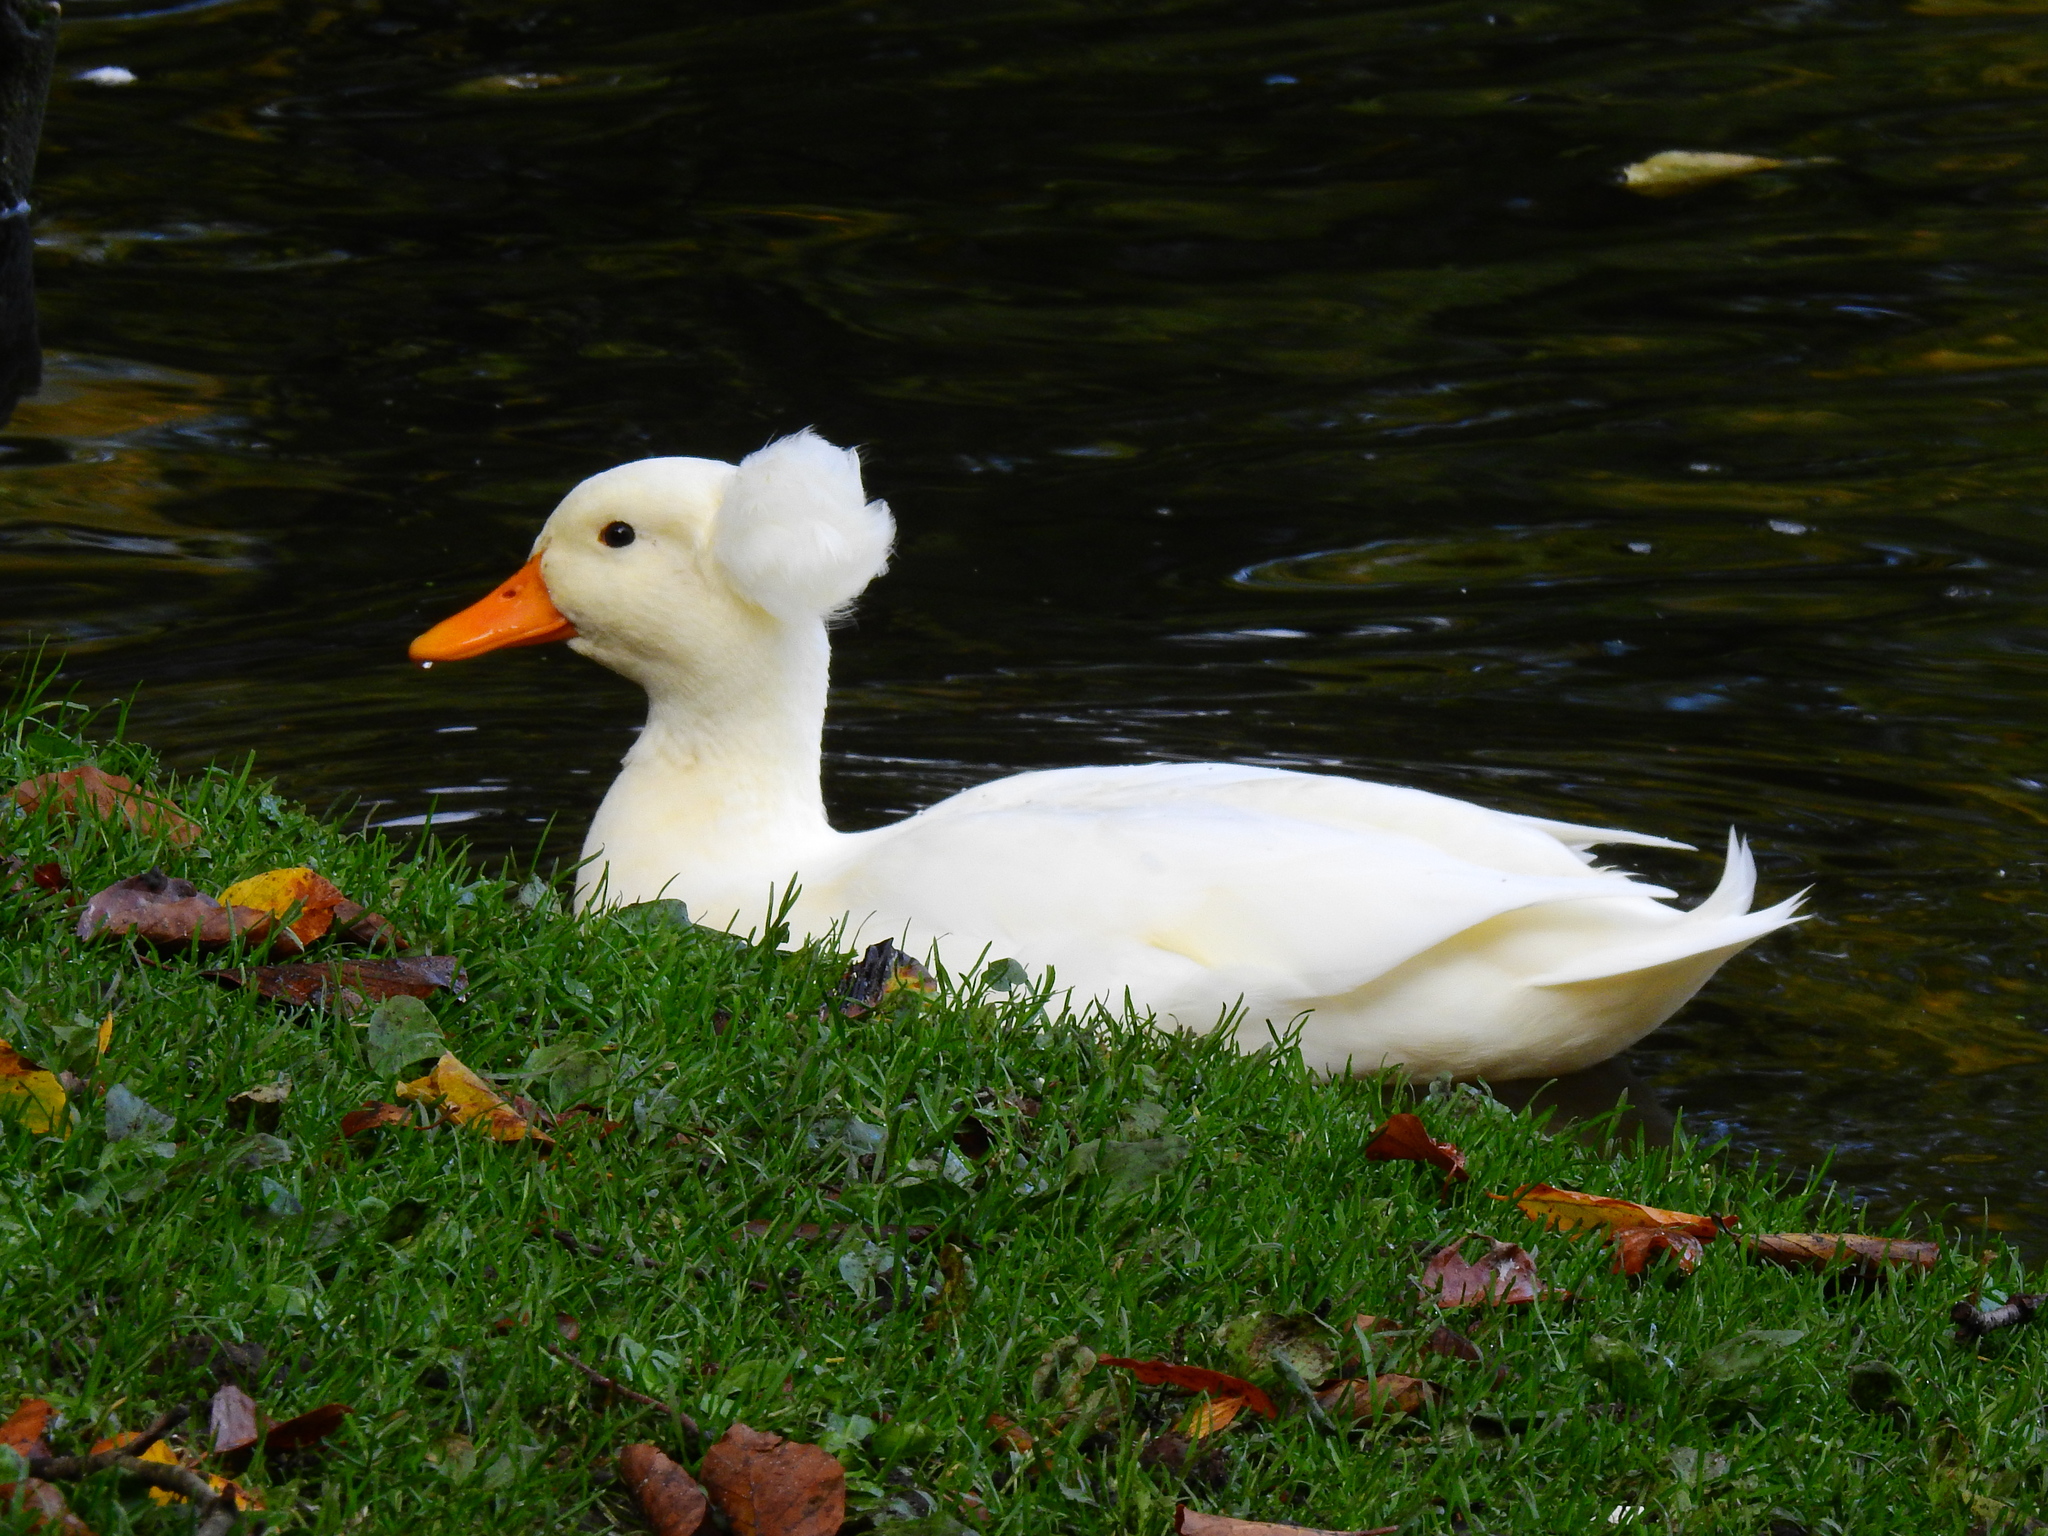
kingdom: Animalia
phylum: Chordata
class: Aves
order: Anseriformes
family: Anatidae
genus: Anas
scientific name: Anas platyrhynchos
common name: Mallard
